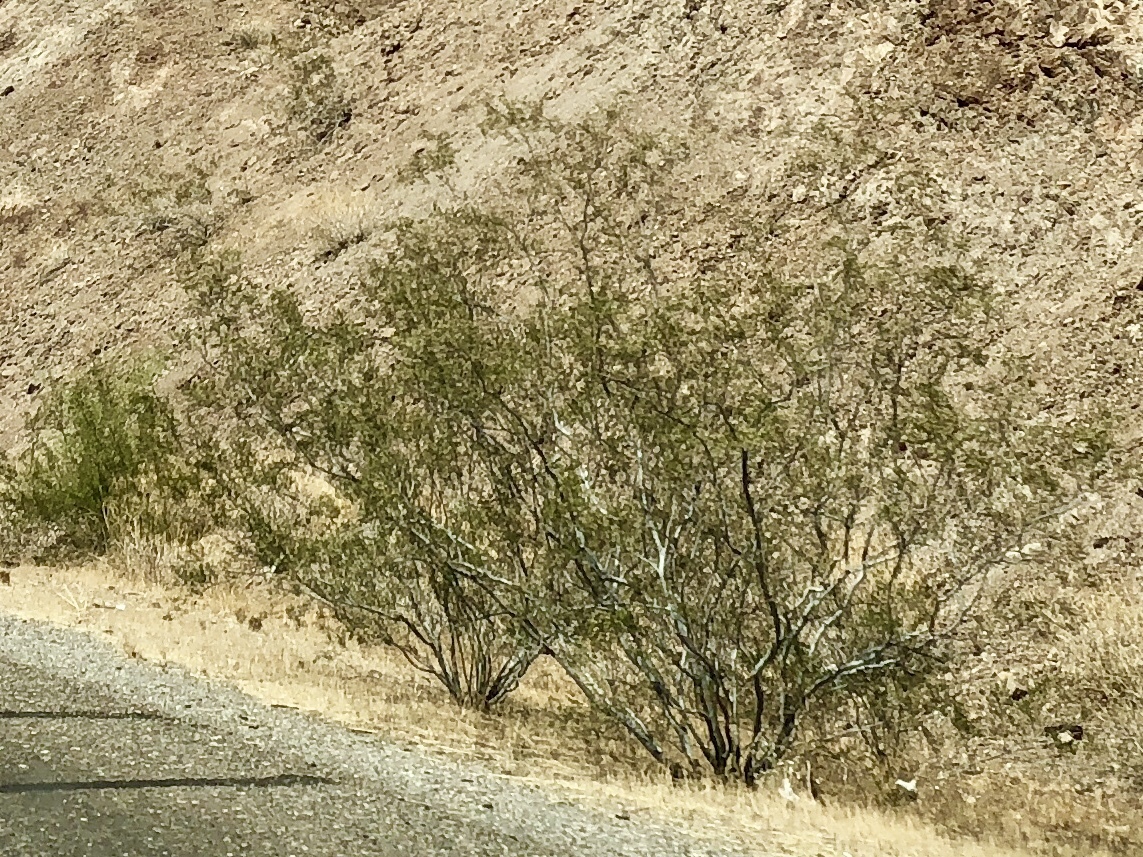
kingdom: Plantae
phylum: Tracheophyta
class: Magnoliopsida
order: Zygophyllales
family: Zygophyllaceae
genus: Larrea
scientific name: Larrea tridentata
